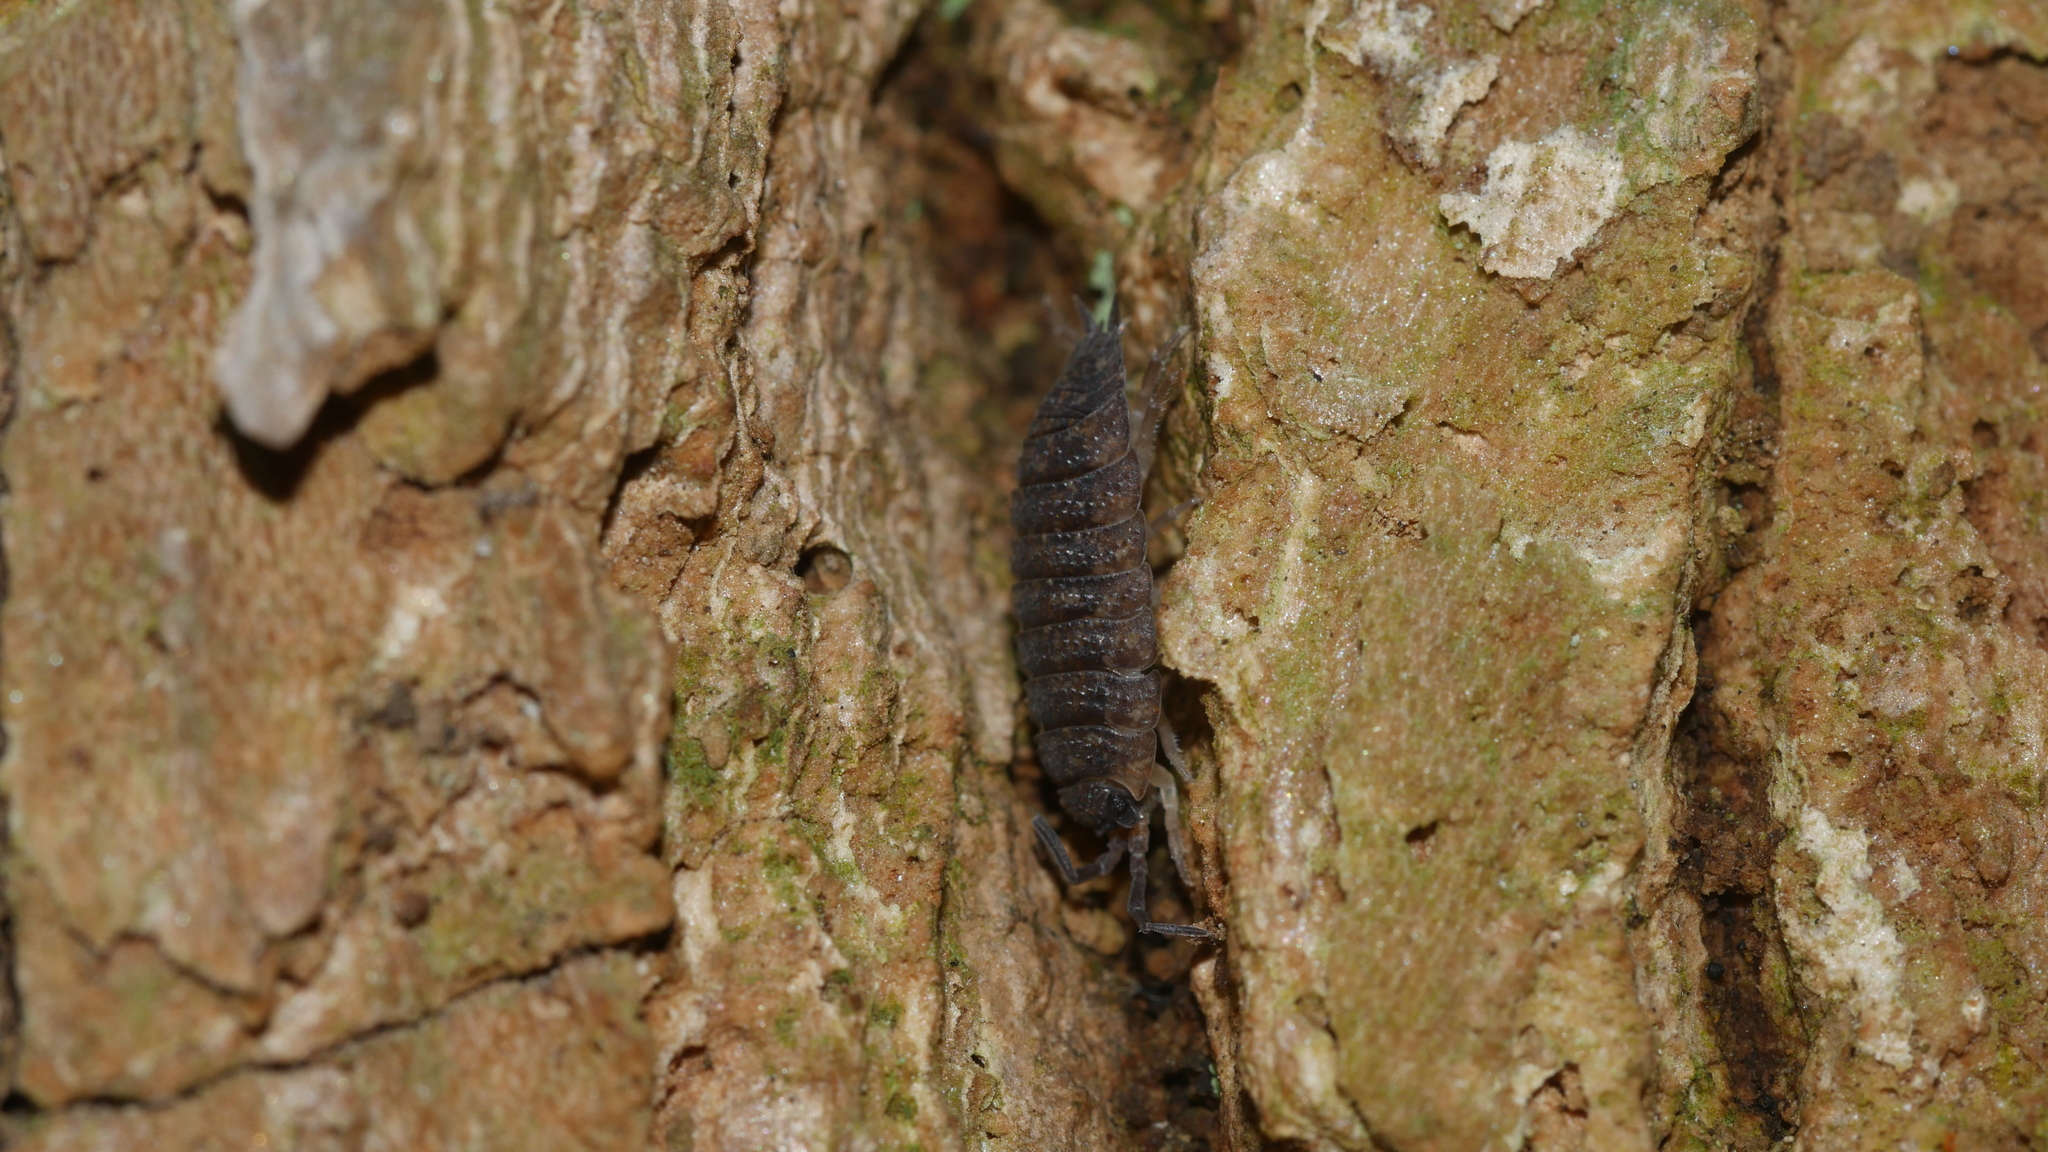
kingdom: Animalia
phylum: Arthropoda
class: Malacostraca
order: Isopoda
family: Porcellionidae
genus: Porcellio
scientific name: Porcellio scaber
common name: Common rough woodlouse
